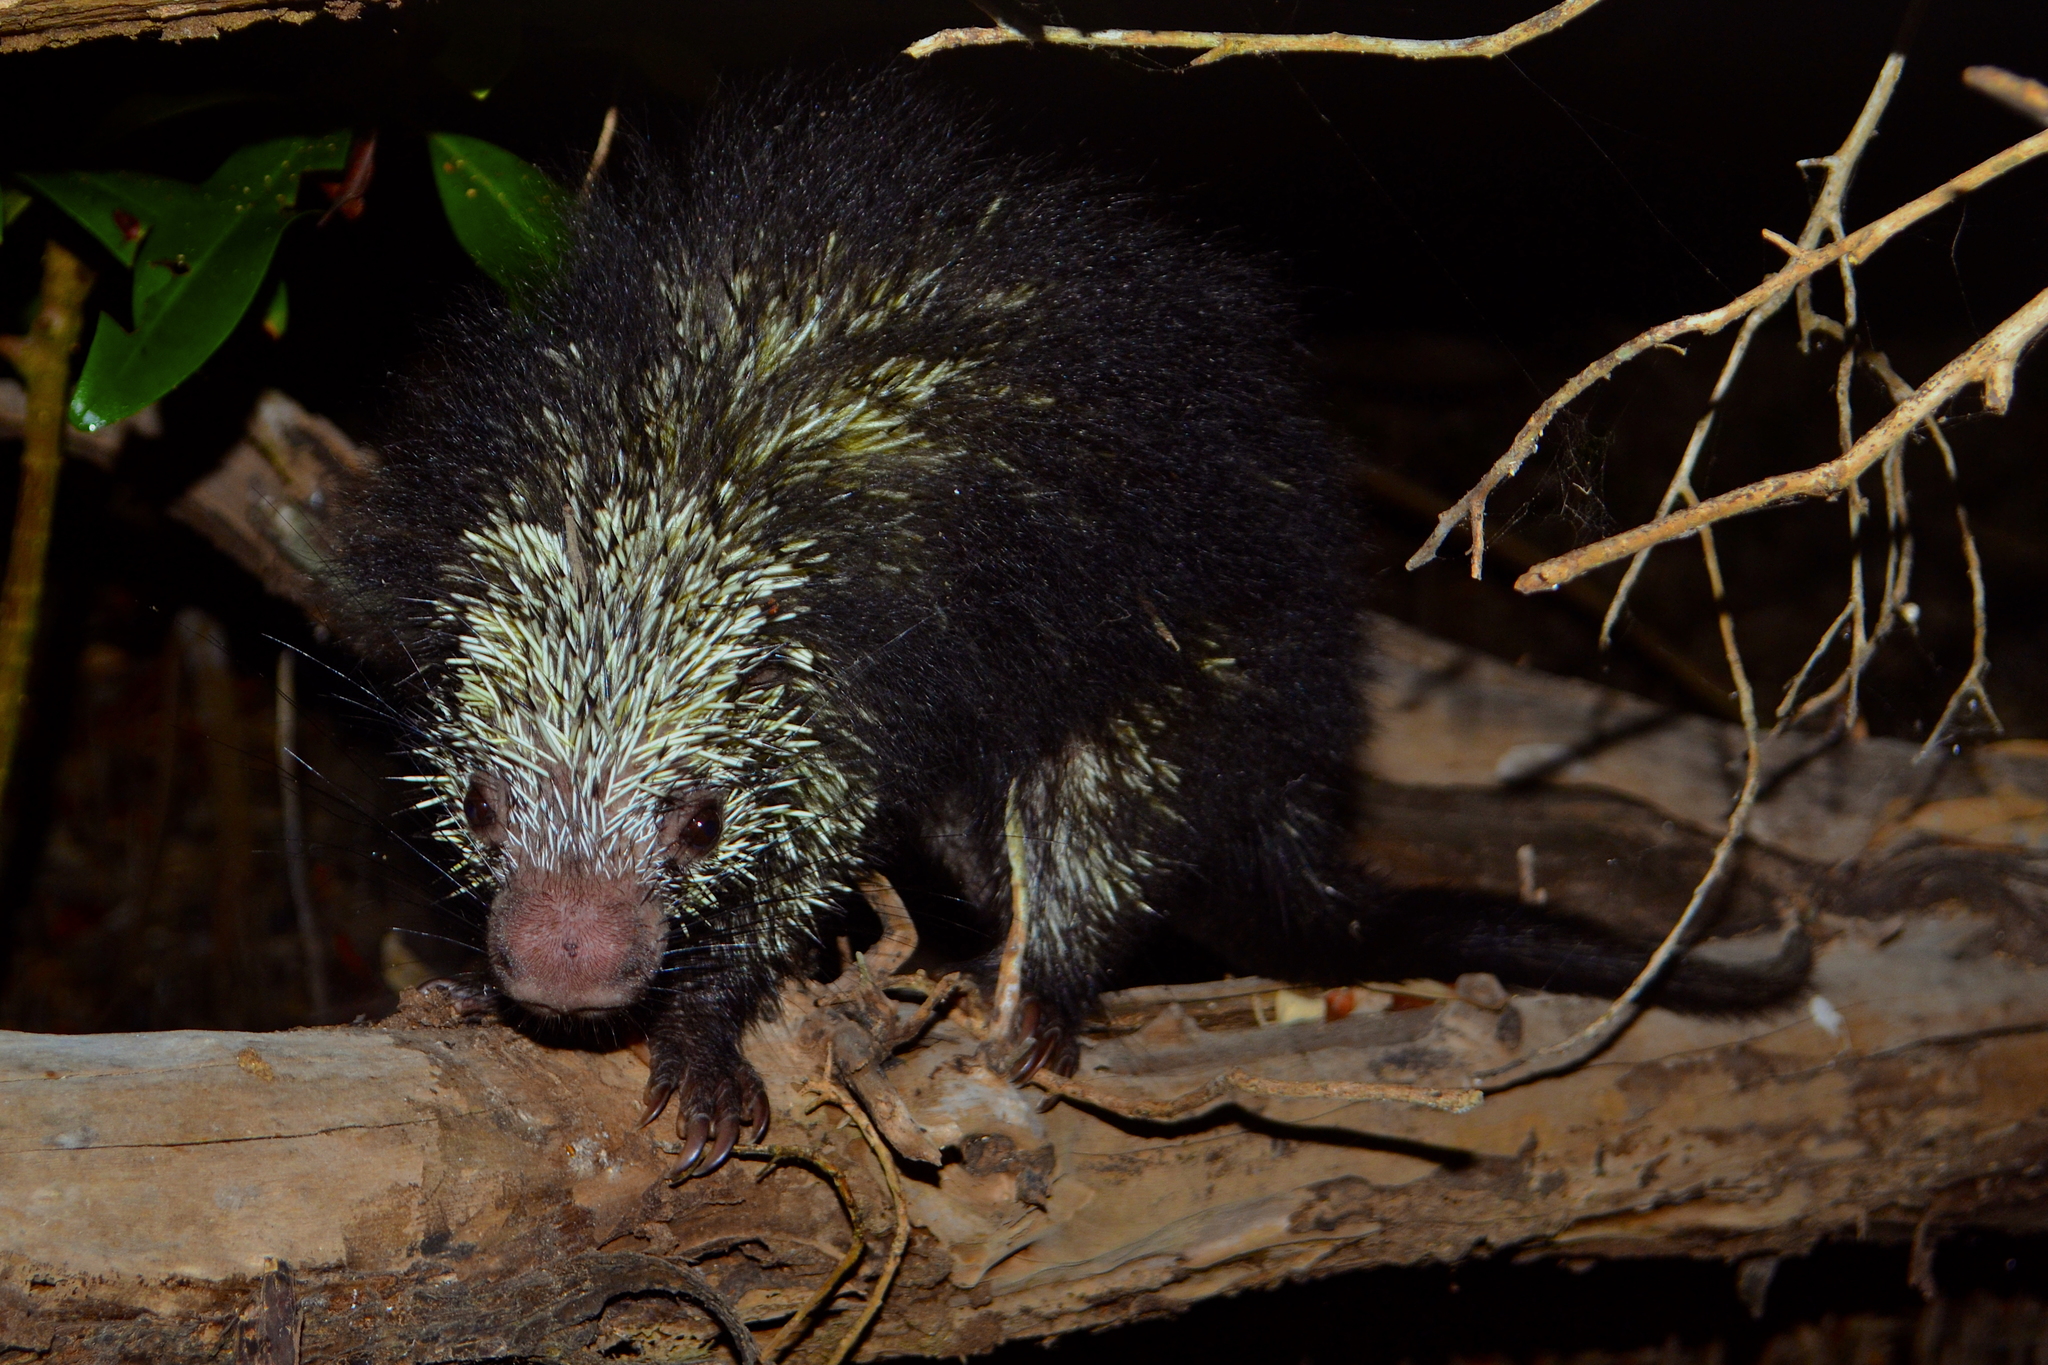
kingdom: Animalia
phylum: Chordata
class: Mammalia
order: Rodentia
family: Erethizontidae
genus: Sphiggurus
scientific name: Sphiggurus mexicanus
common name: Mexican hairy dwarf porcupine
